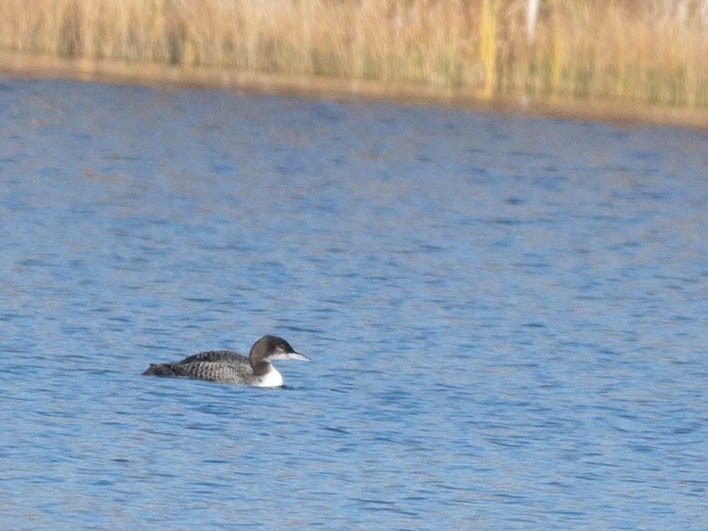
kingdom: Animalia
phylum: Chordata
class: Aves
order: Gaviiformes
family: Gaviidae
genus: Gavia
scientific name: Gavia immer
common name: Common loon
